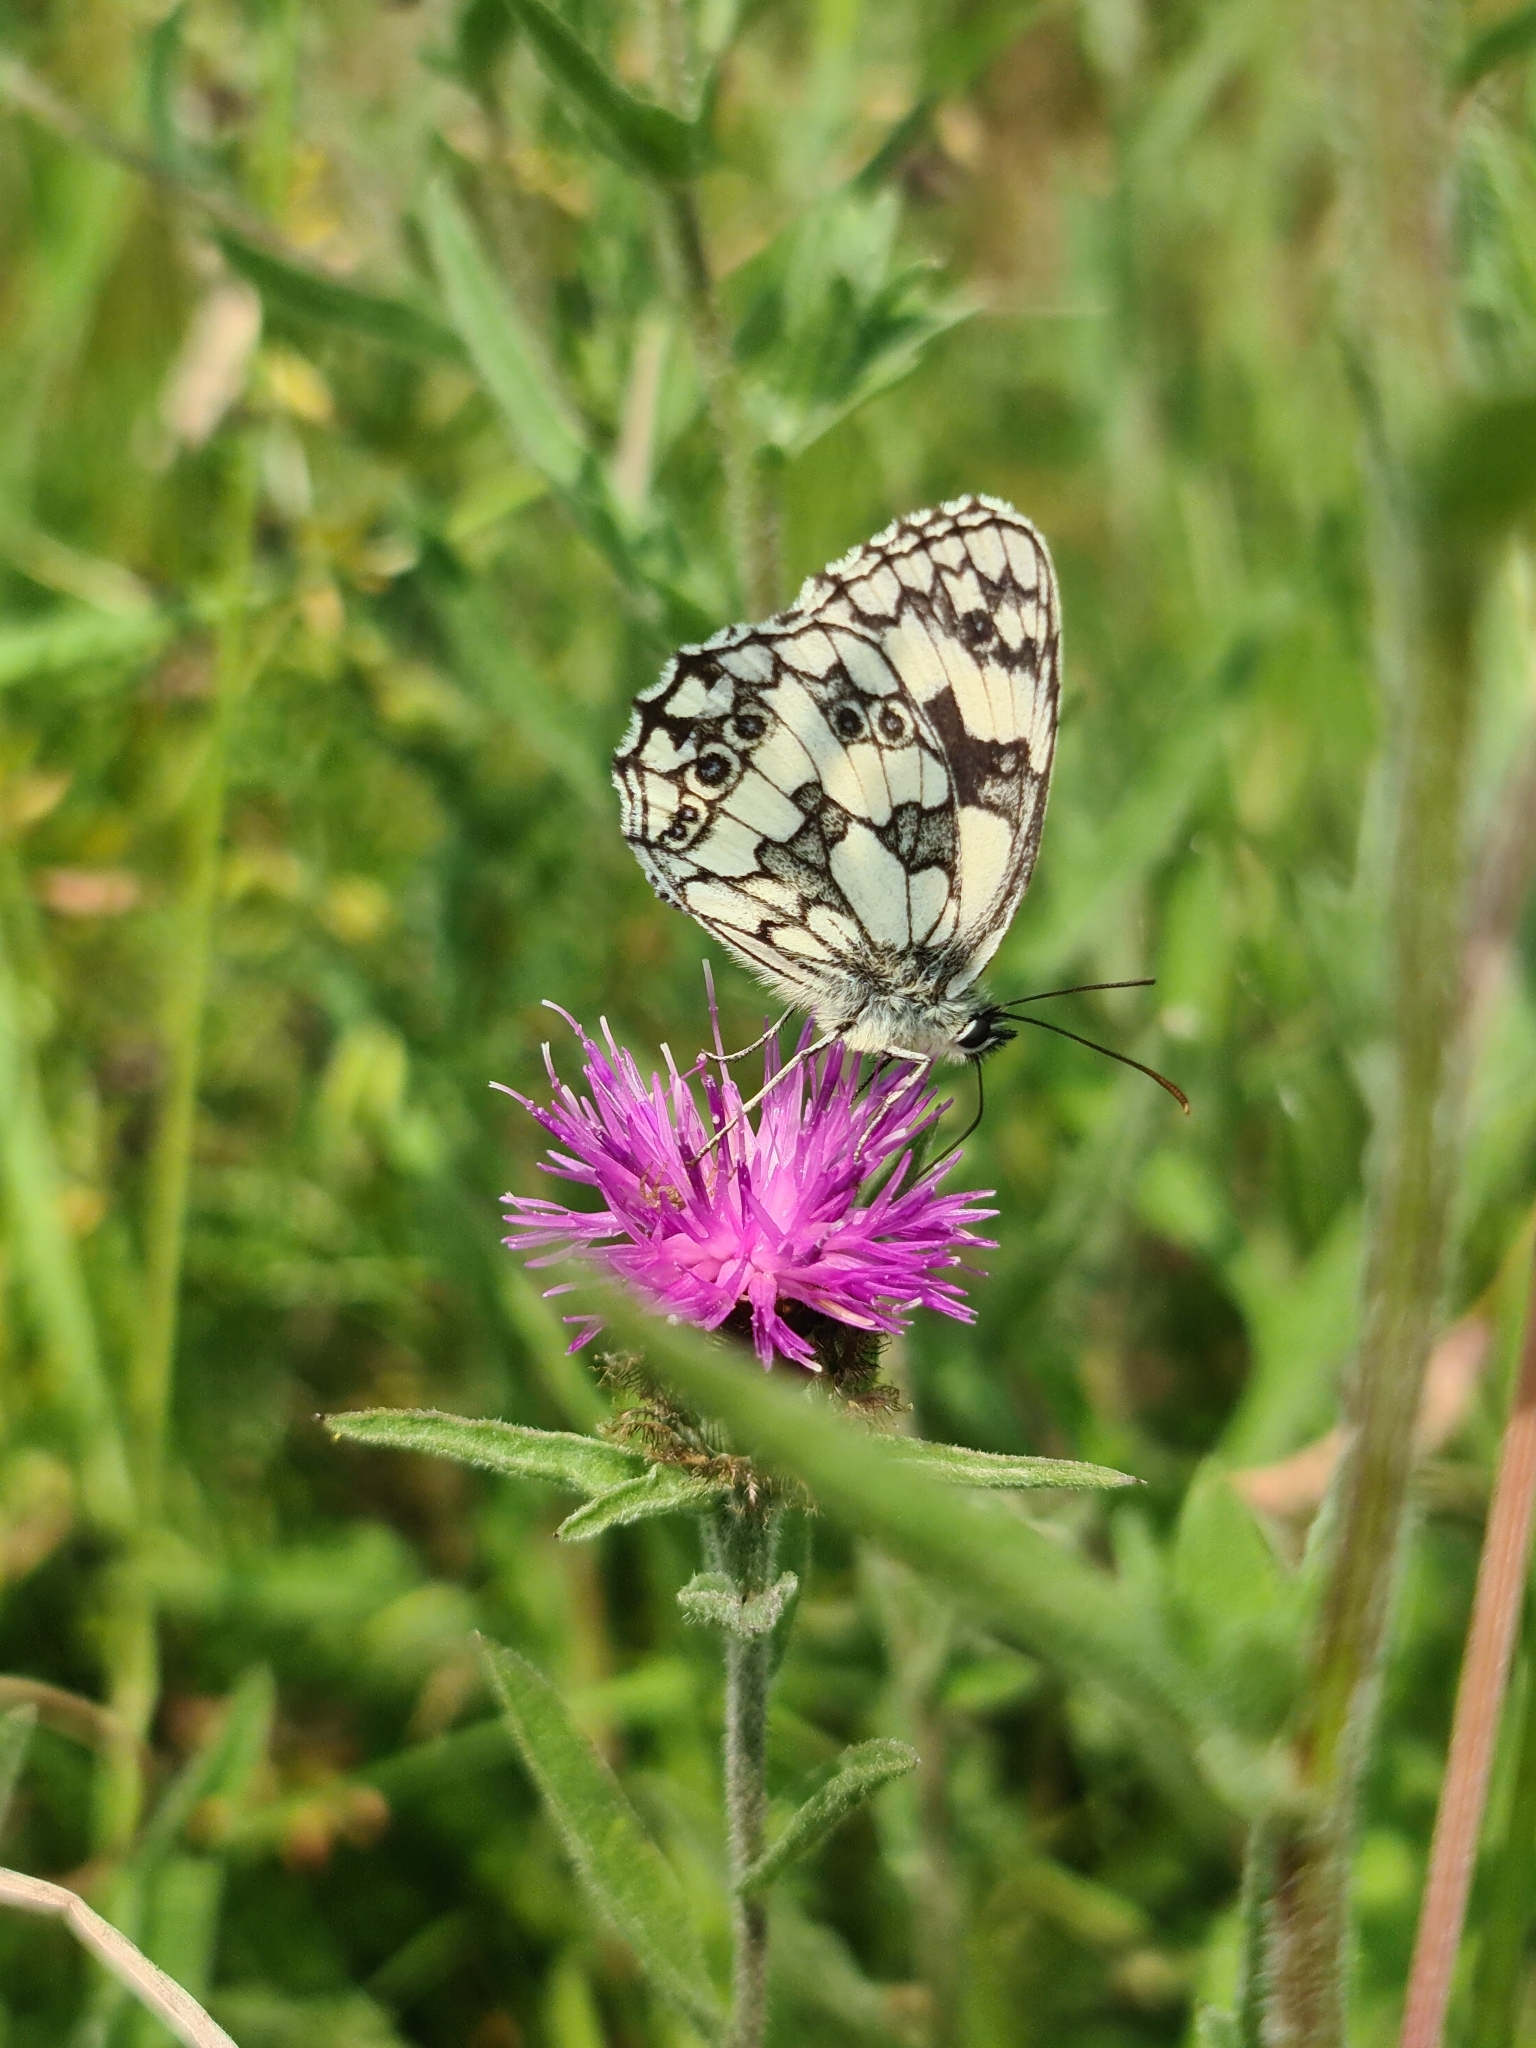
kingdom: Animalia
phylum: Arthropoda
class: Insecta
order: Lepidoptera
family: Nymphalidae
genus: Melanargia
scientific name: Melanargia galathea
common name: Marbled white
